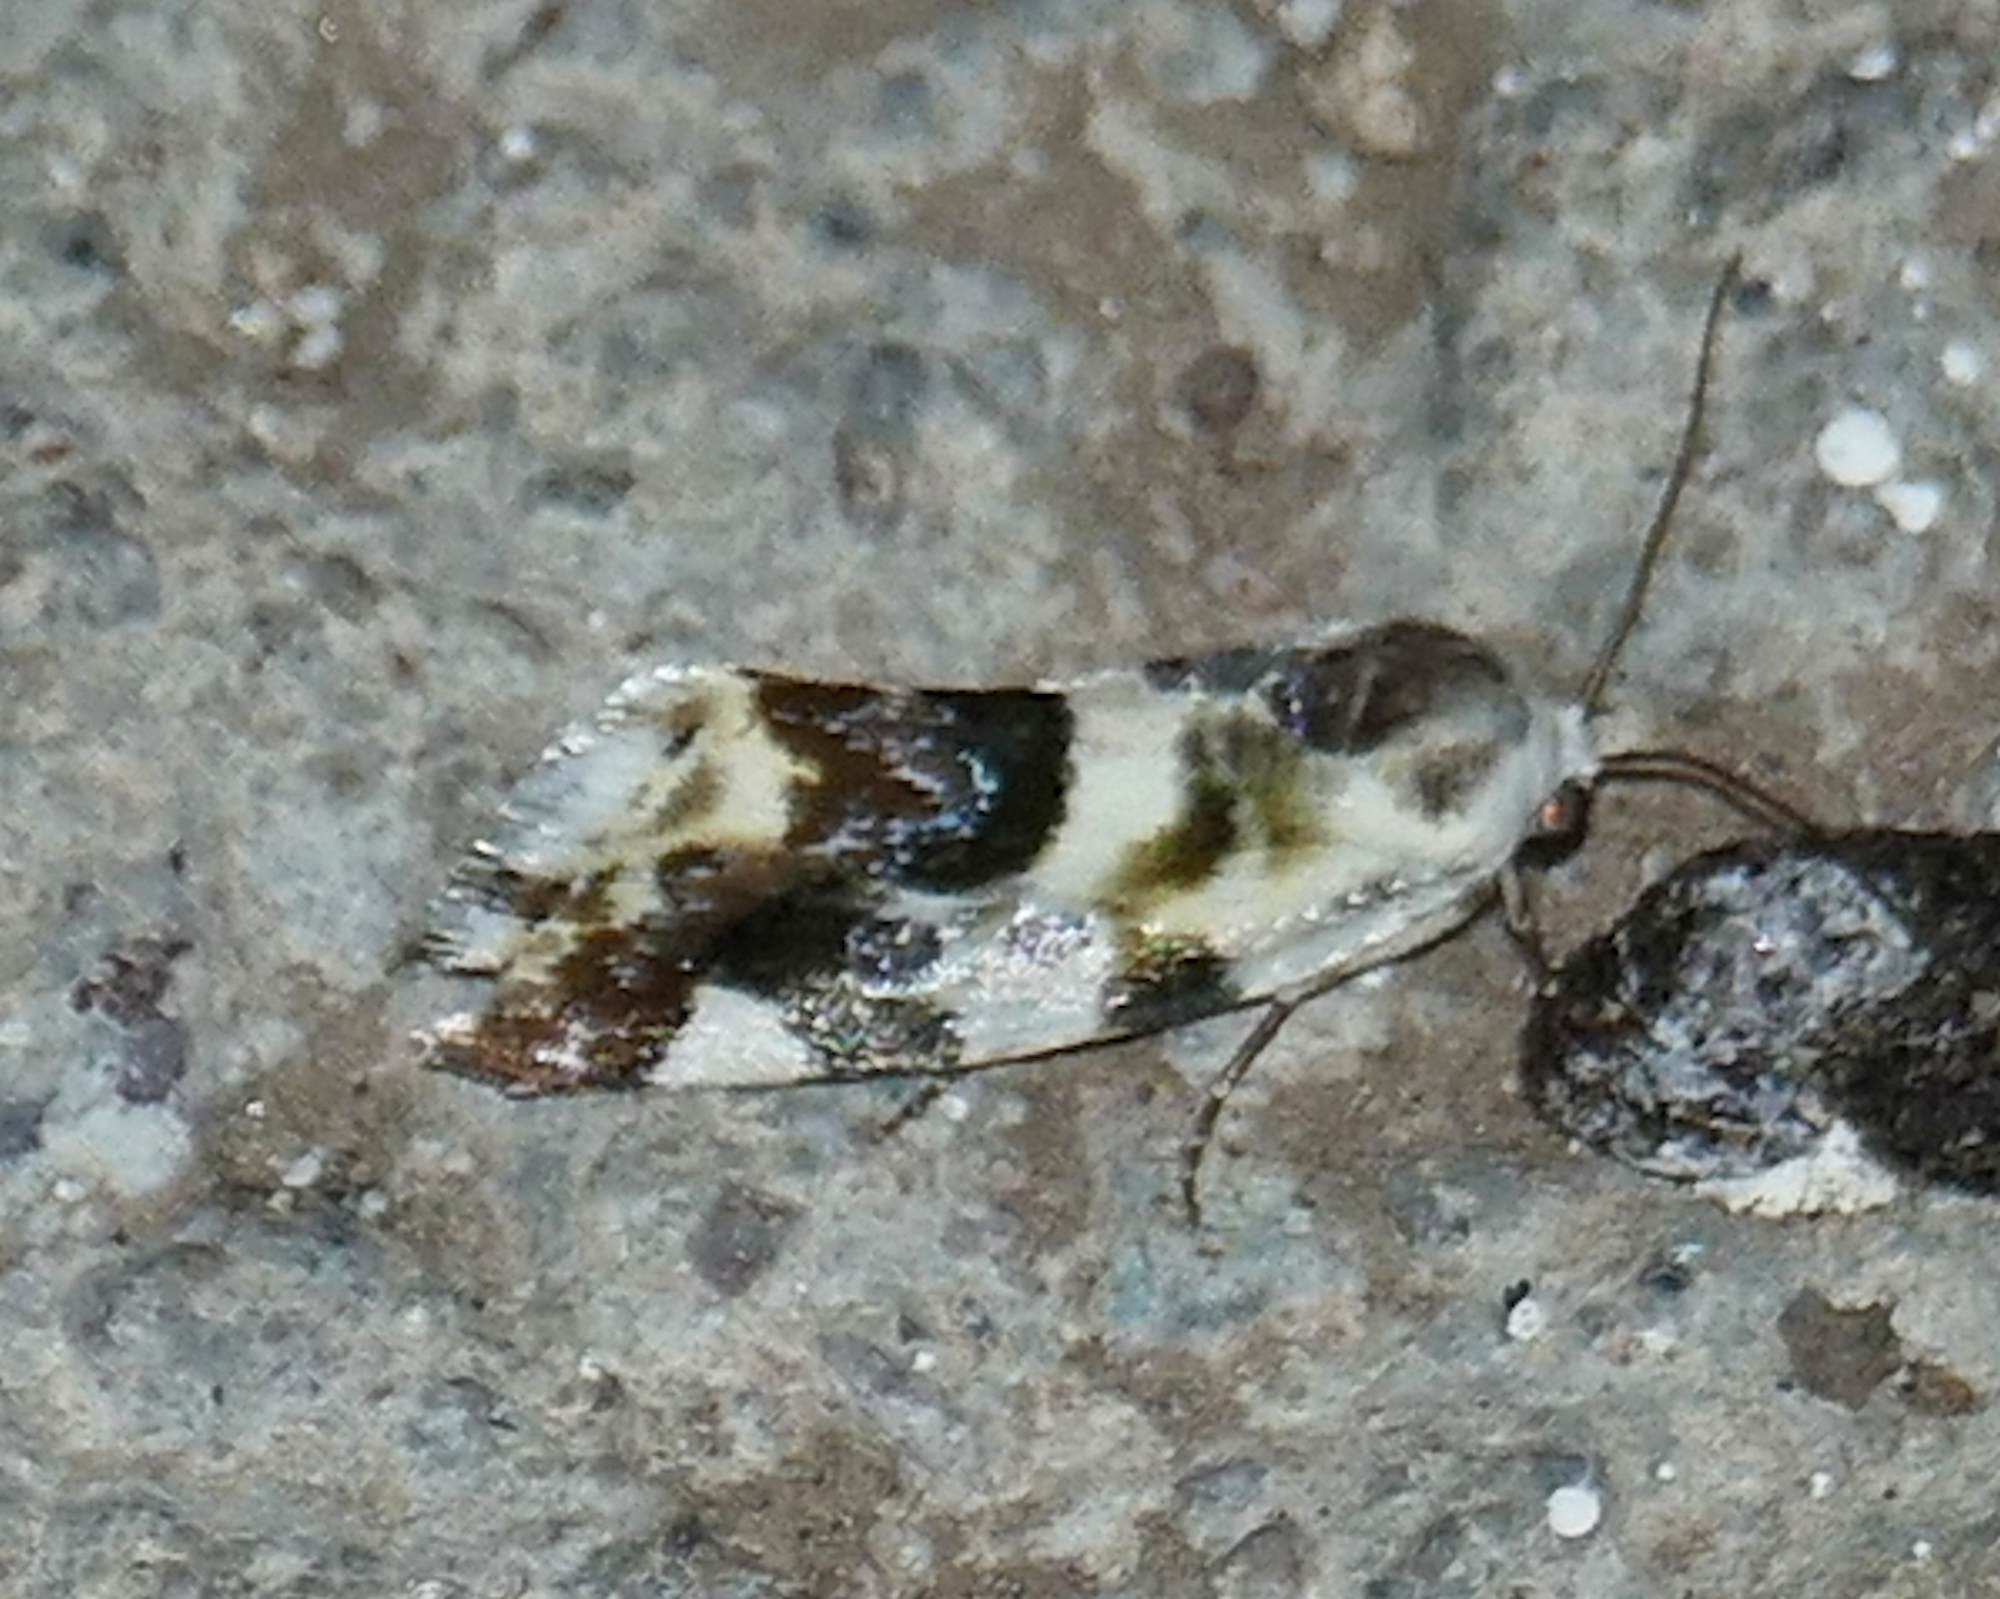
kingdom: Animalia
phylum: Arthropoda
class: Insecta
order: Lepidoptera
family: Noctuidae
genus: Acontia
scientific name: Acontia Tarache bella
